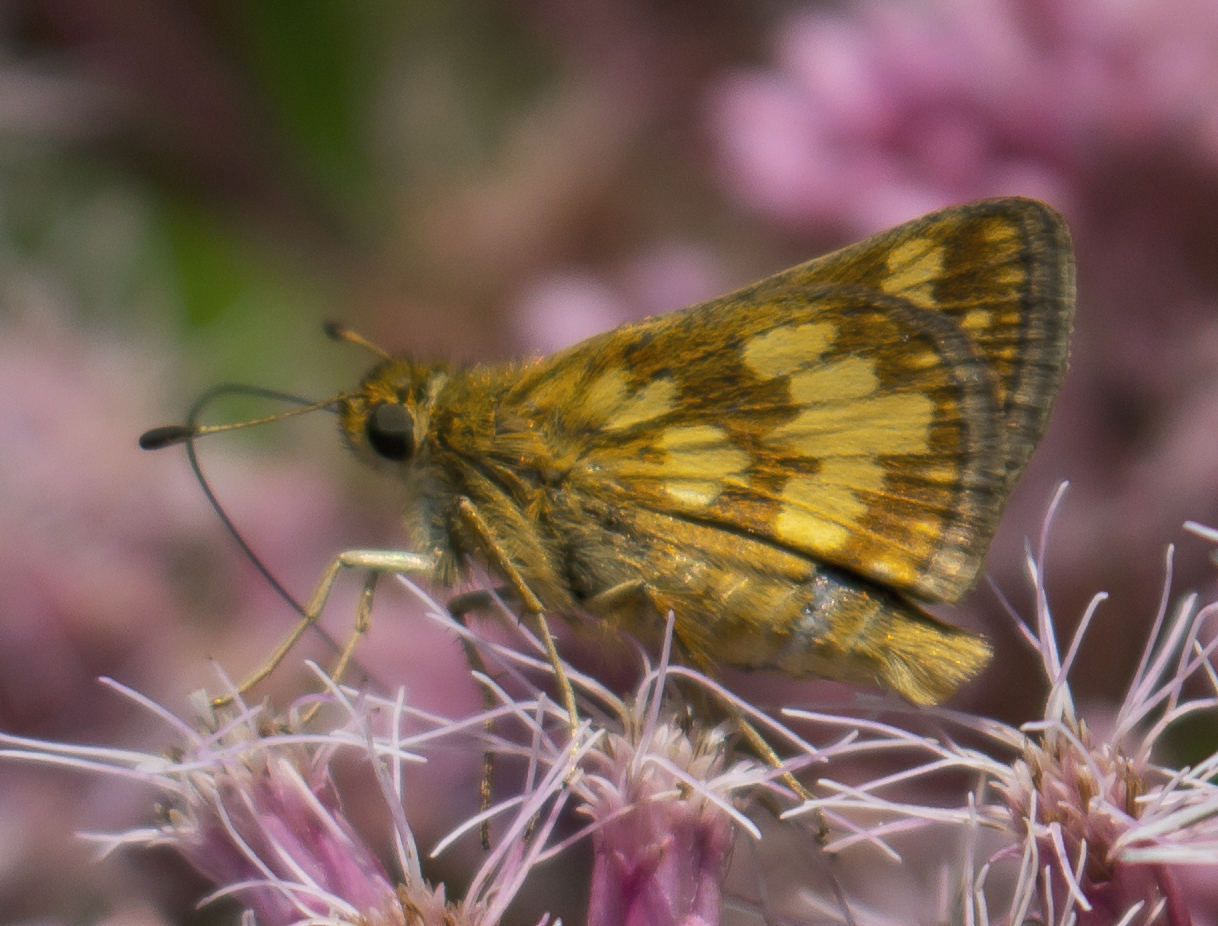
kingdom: Animalia
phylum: Arthropoda
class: Insecta
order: Lepidoptera
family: Hesperiidae
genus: Polites
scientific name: Polites coras
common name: Peck's skipper
